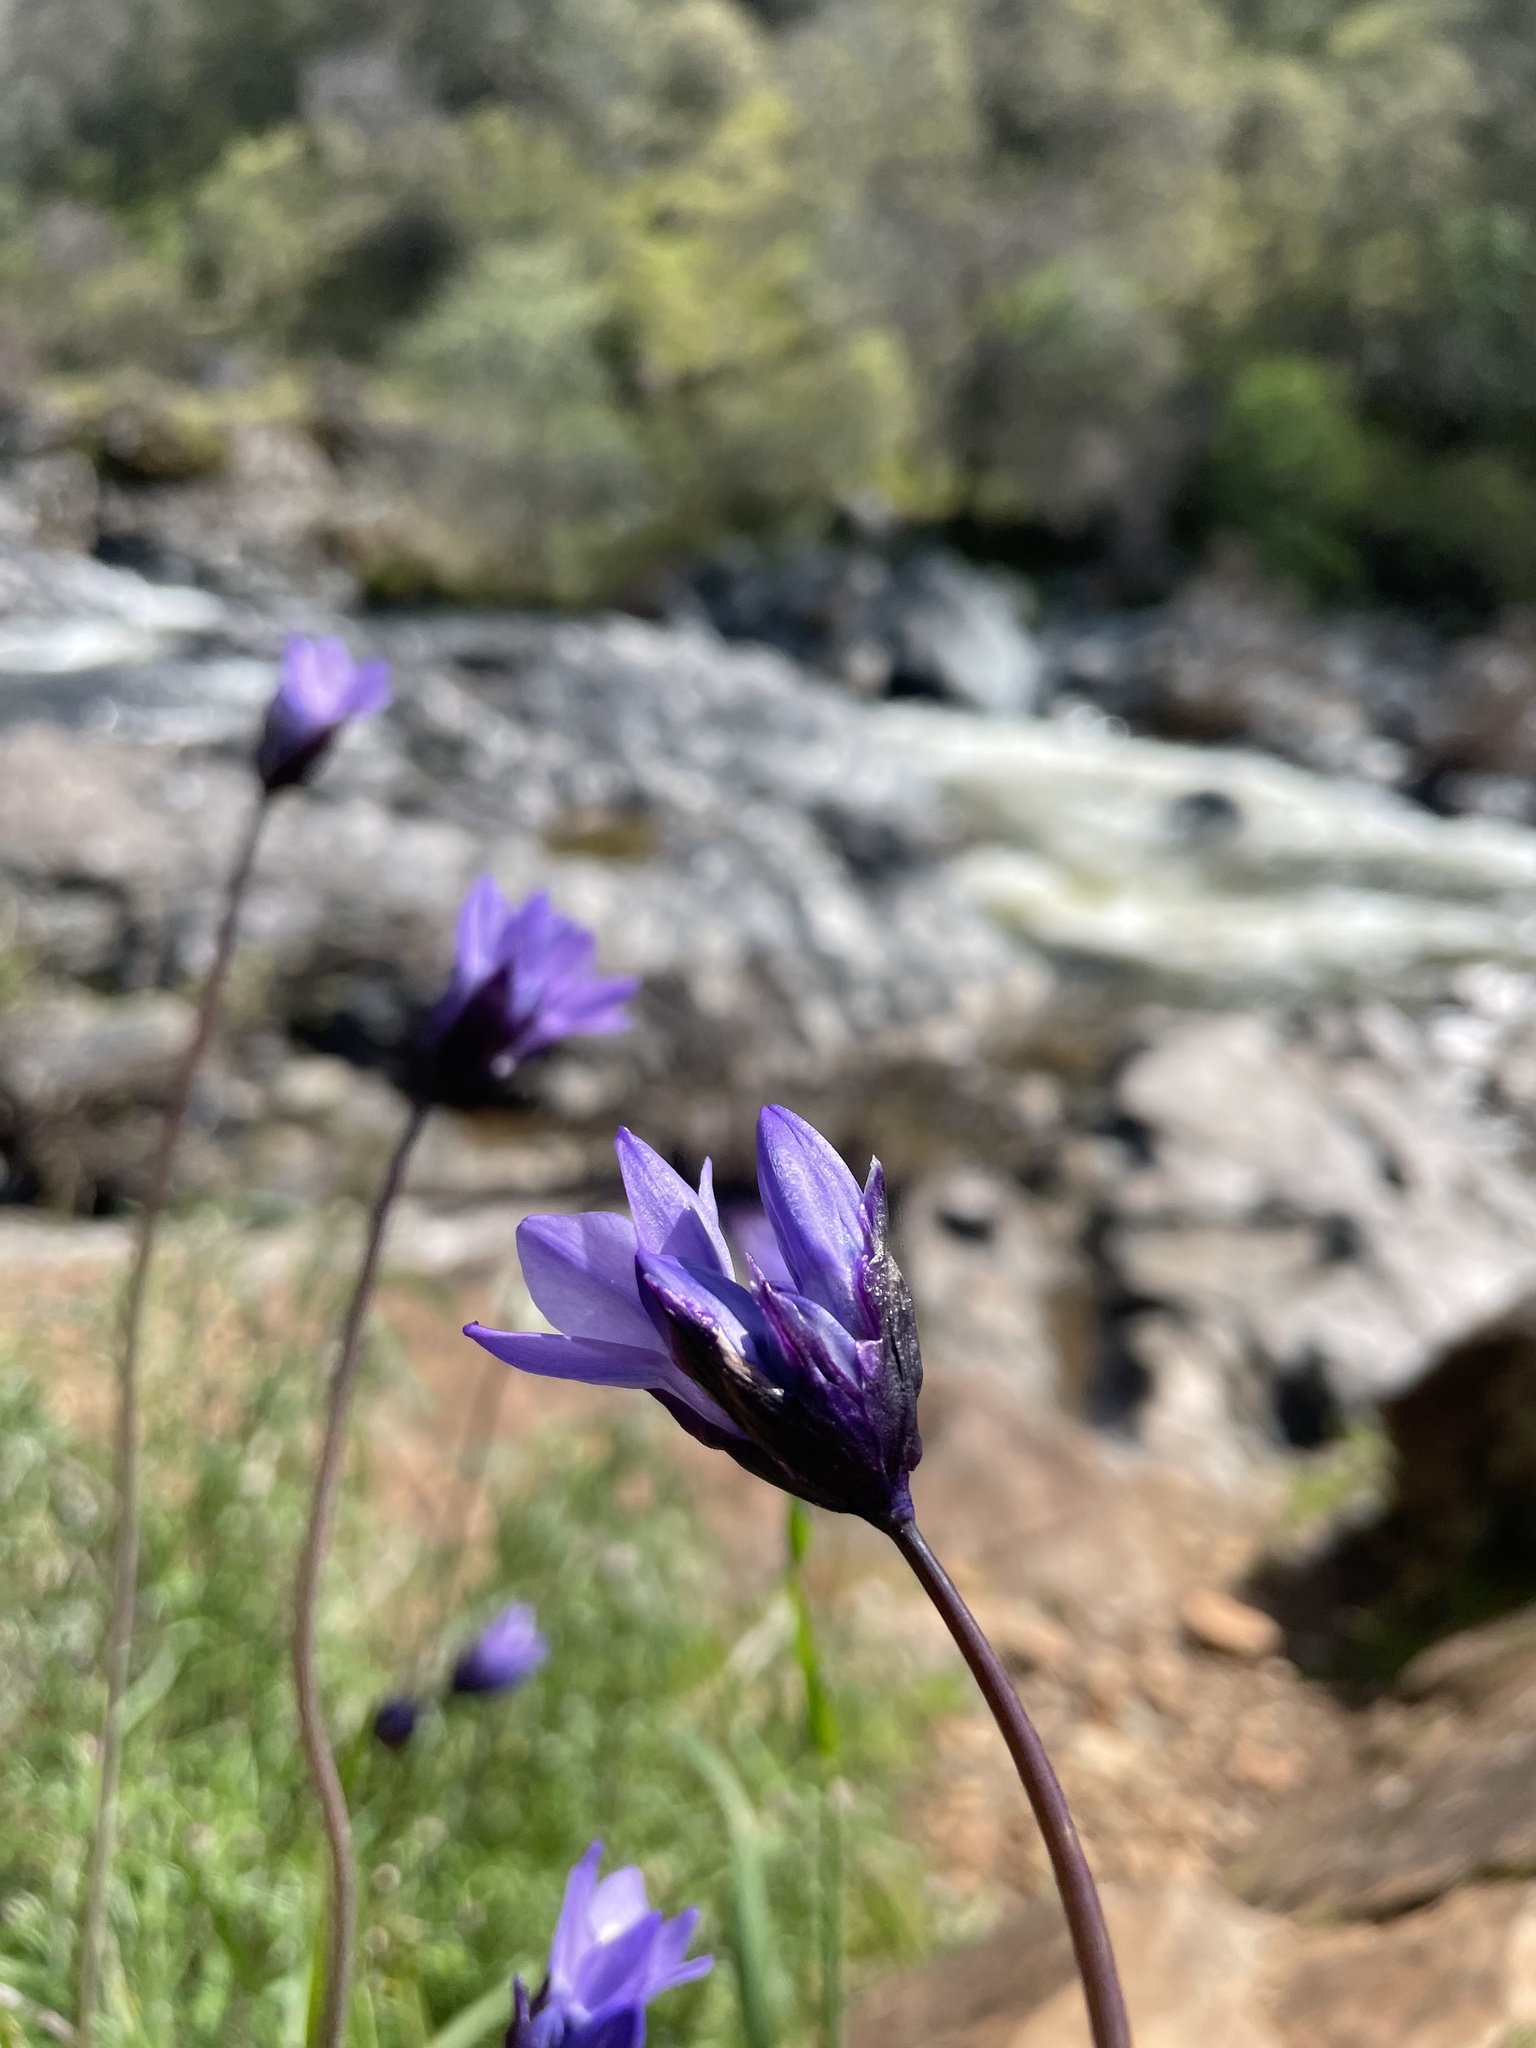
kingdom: Plantae
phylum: Tracheophyta
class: Liliopsida
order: Asparagales
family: Asparagaceae
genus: Dipterostemon
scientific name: Dipterostemon capitatus
